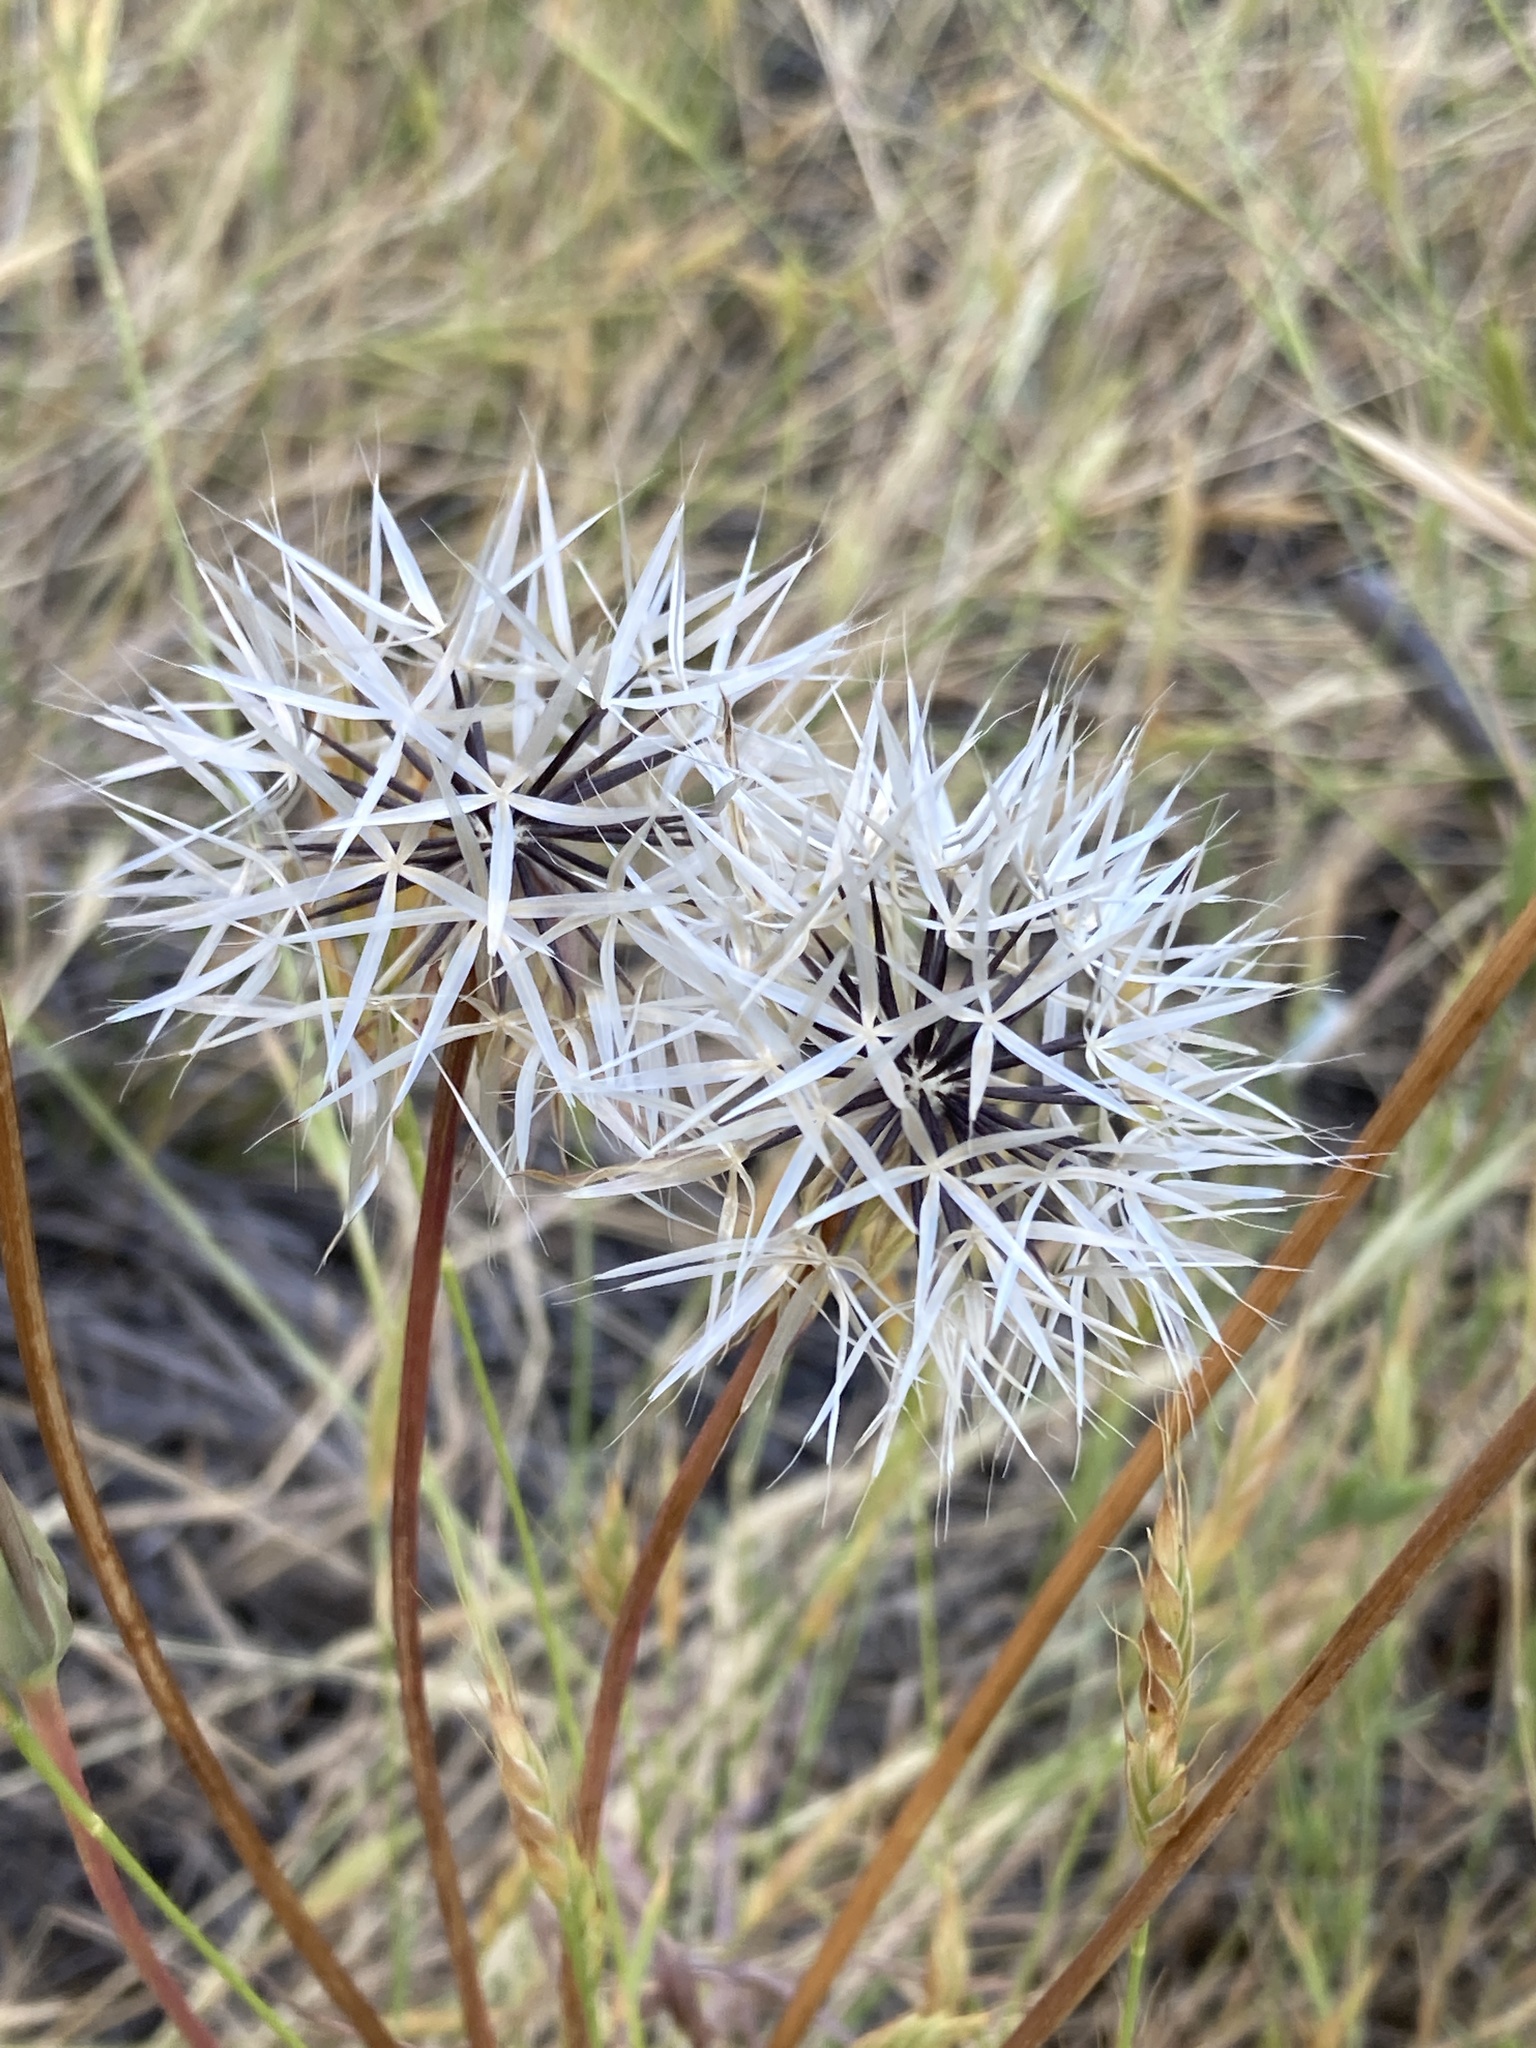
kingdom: Plantae
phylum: Tracheophyta
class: Magnoliopsida
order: Asterales
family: Asteraceae
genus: Microseris
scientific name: Microseris lindleyi
